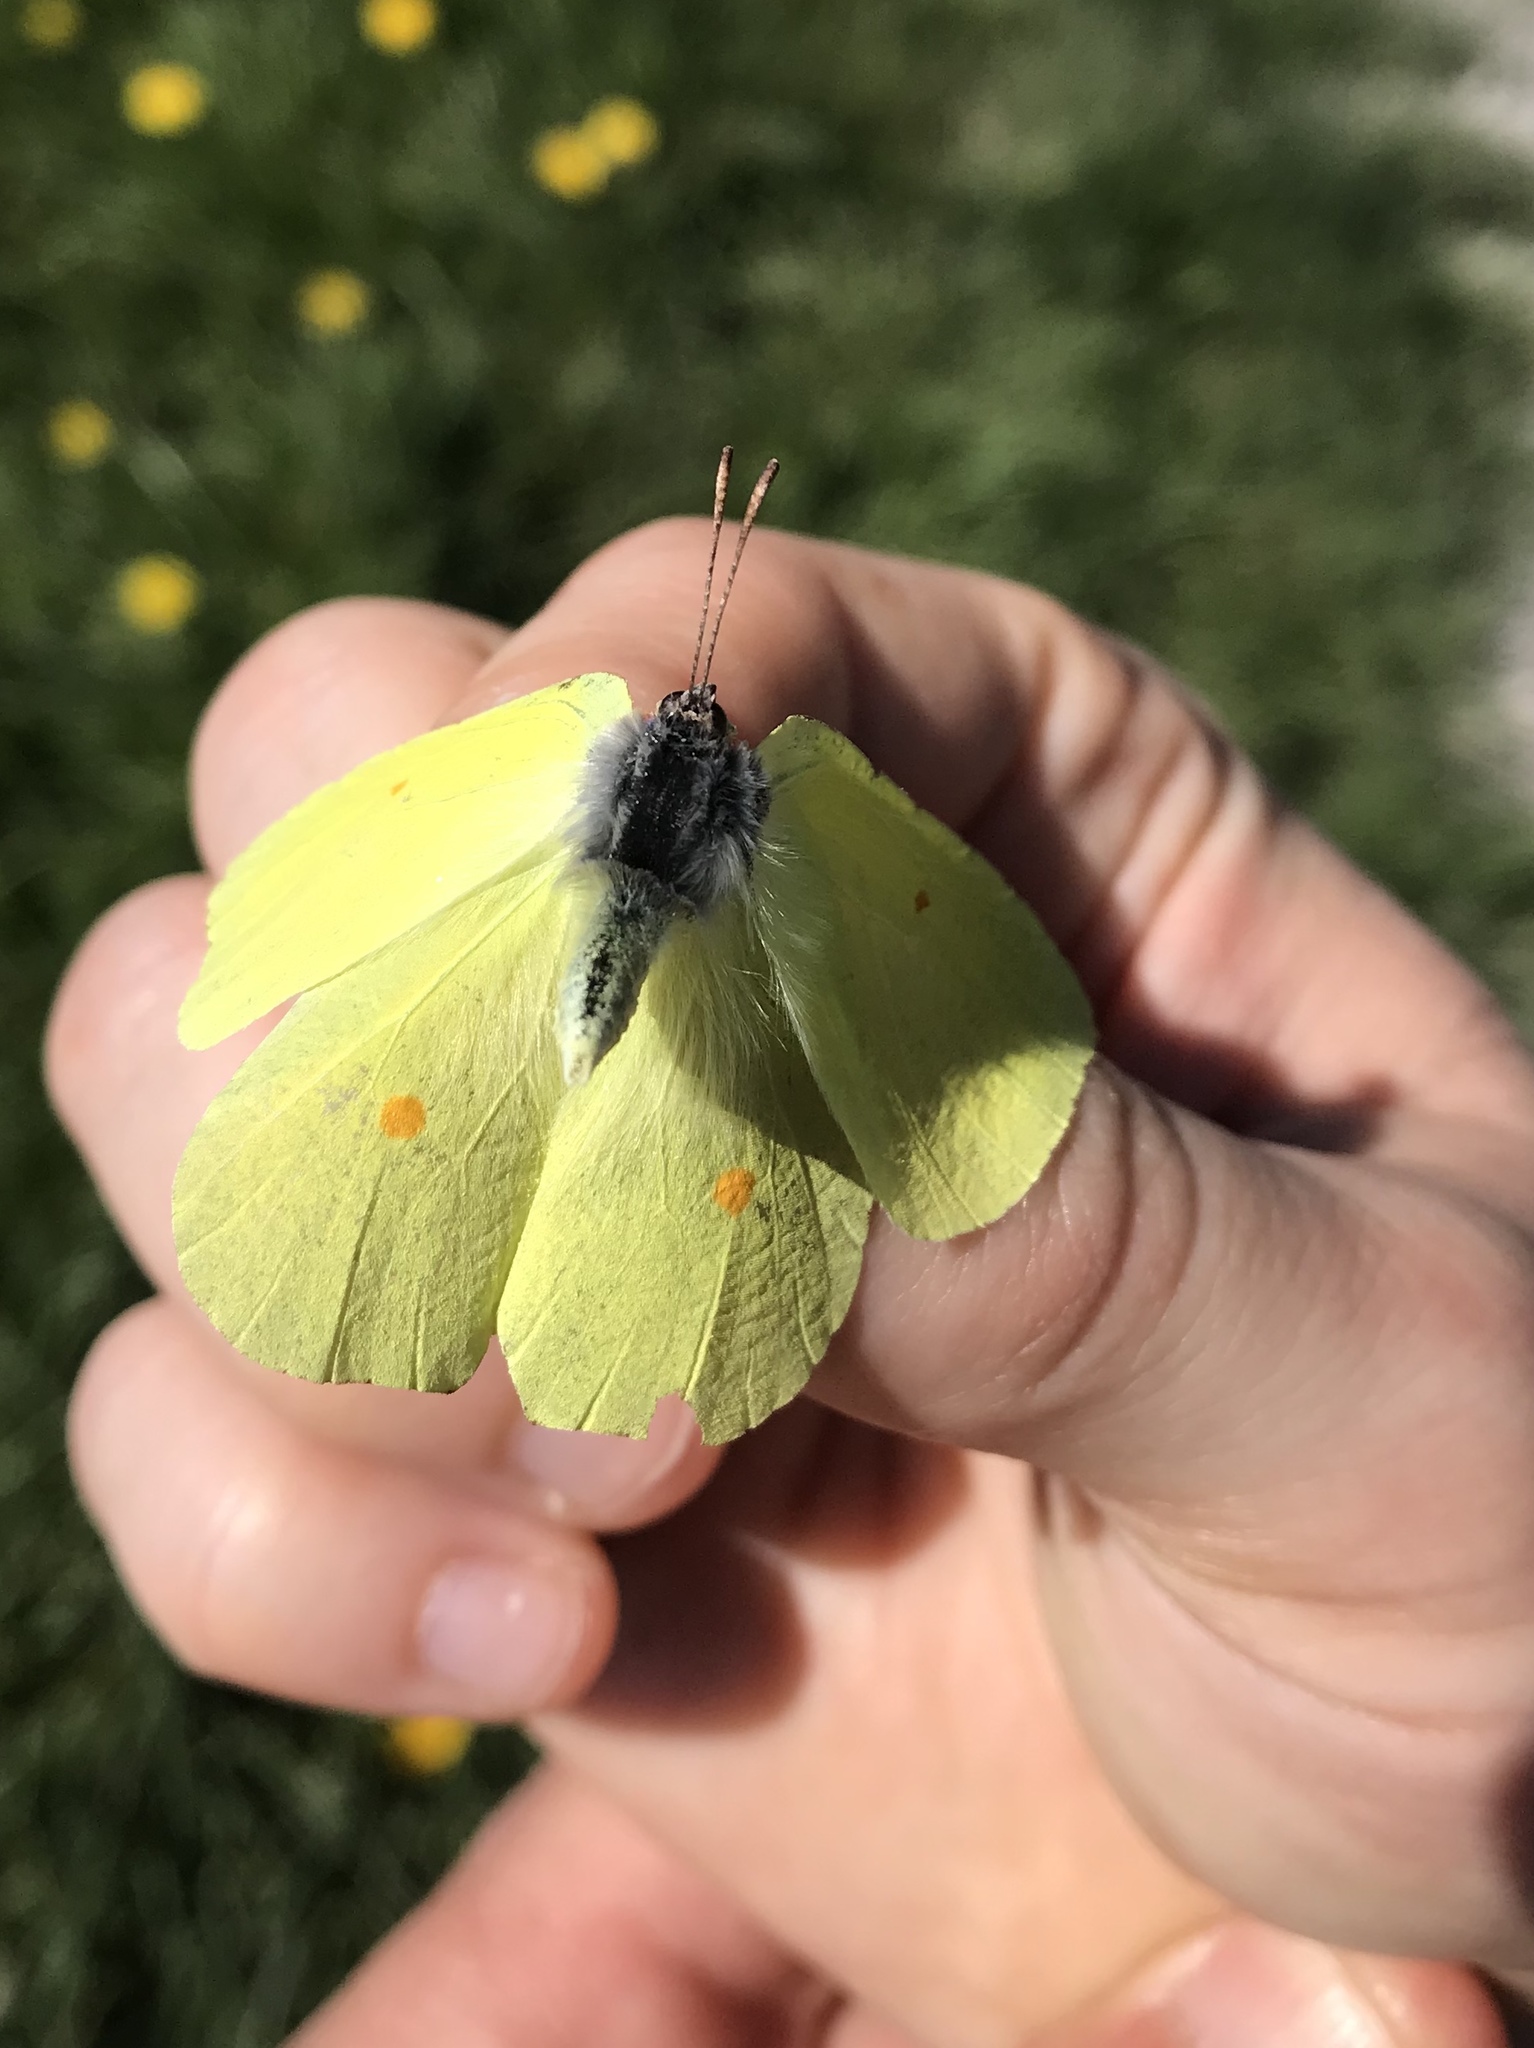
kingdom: Animalia
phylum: Arthropoda
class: Insecta
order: Lepidoptera
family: Pieridae
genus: Gonepteryx
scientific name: Gonepteryx rhamni
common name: Brimstone
